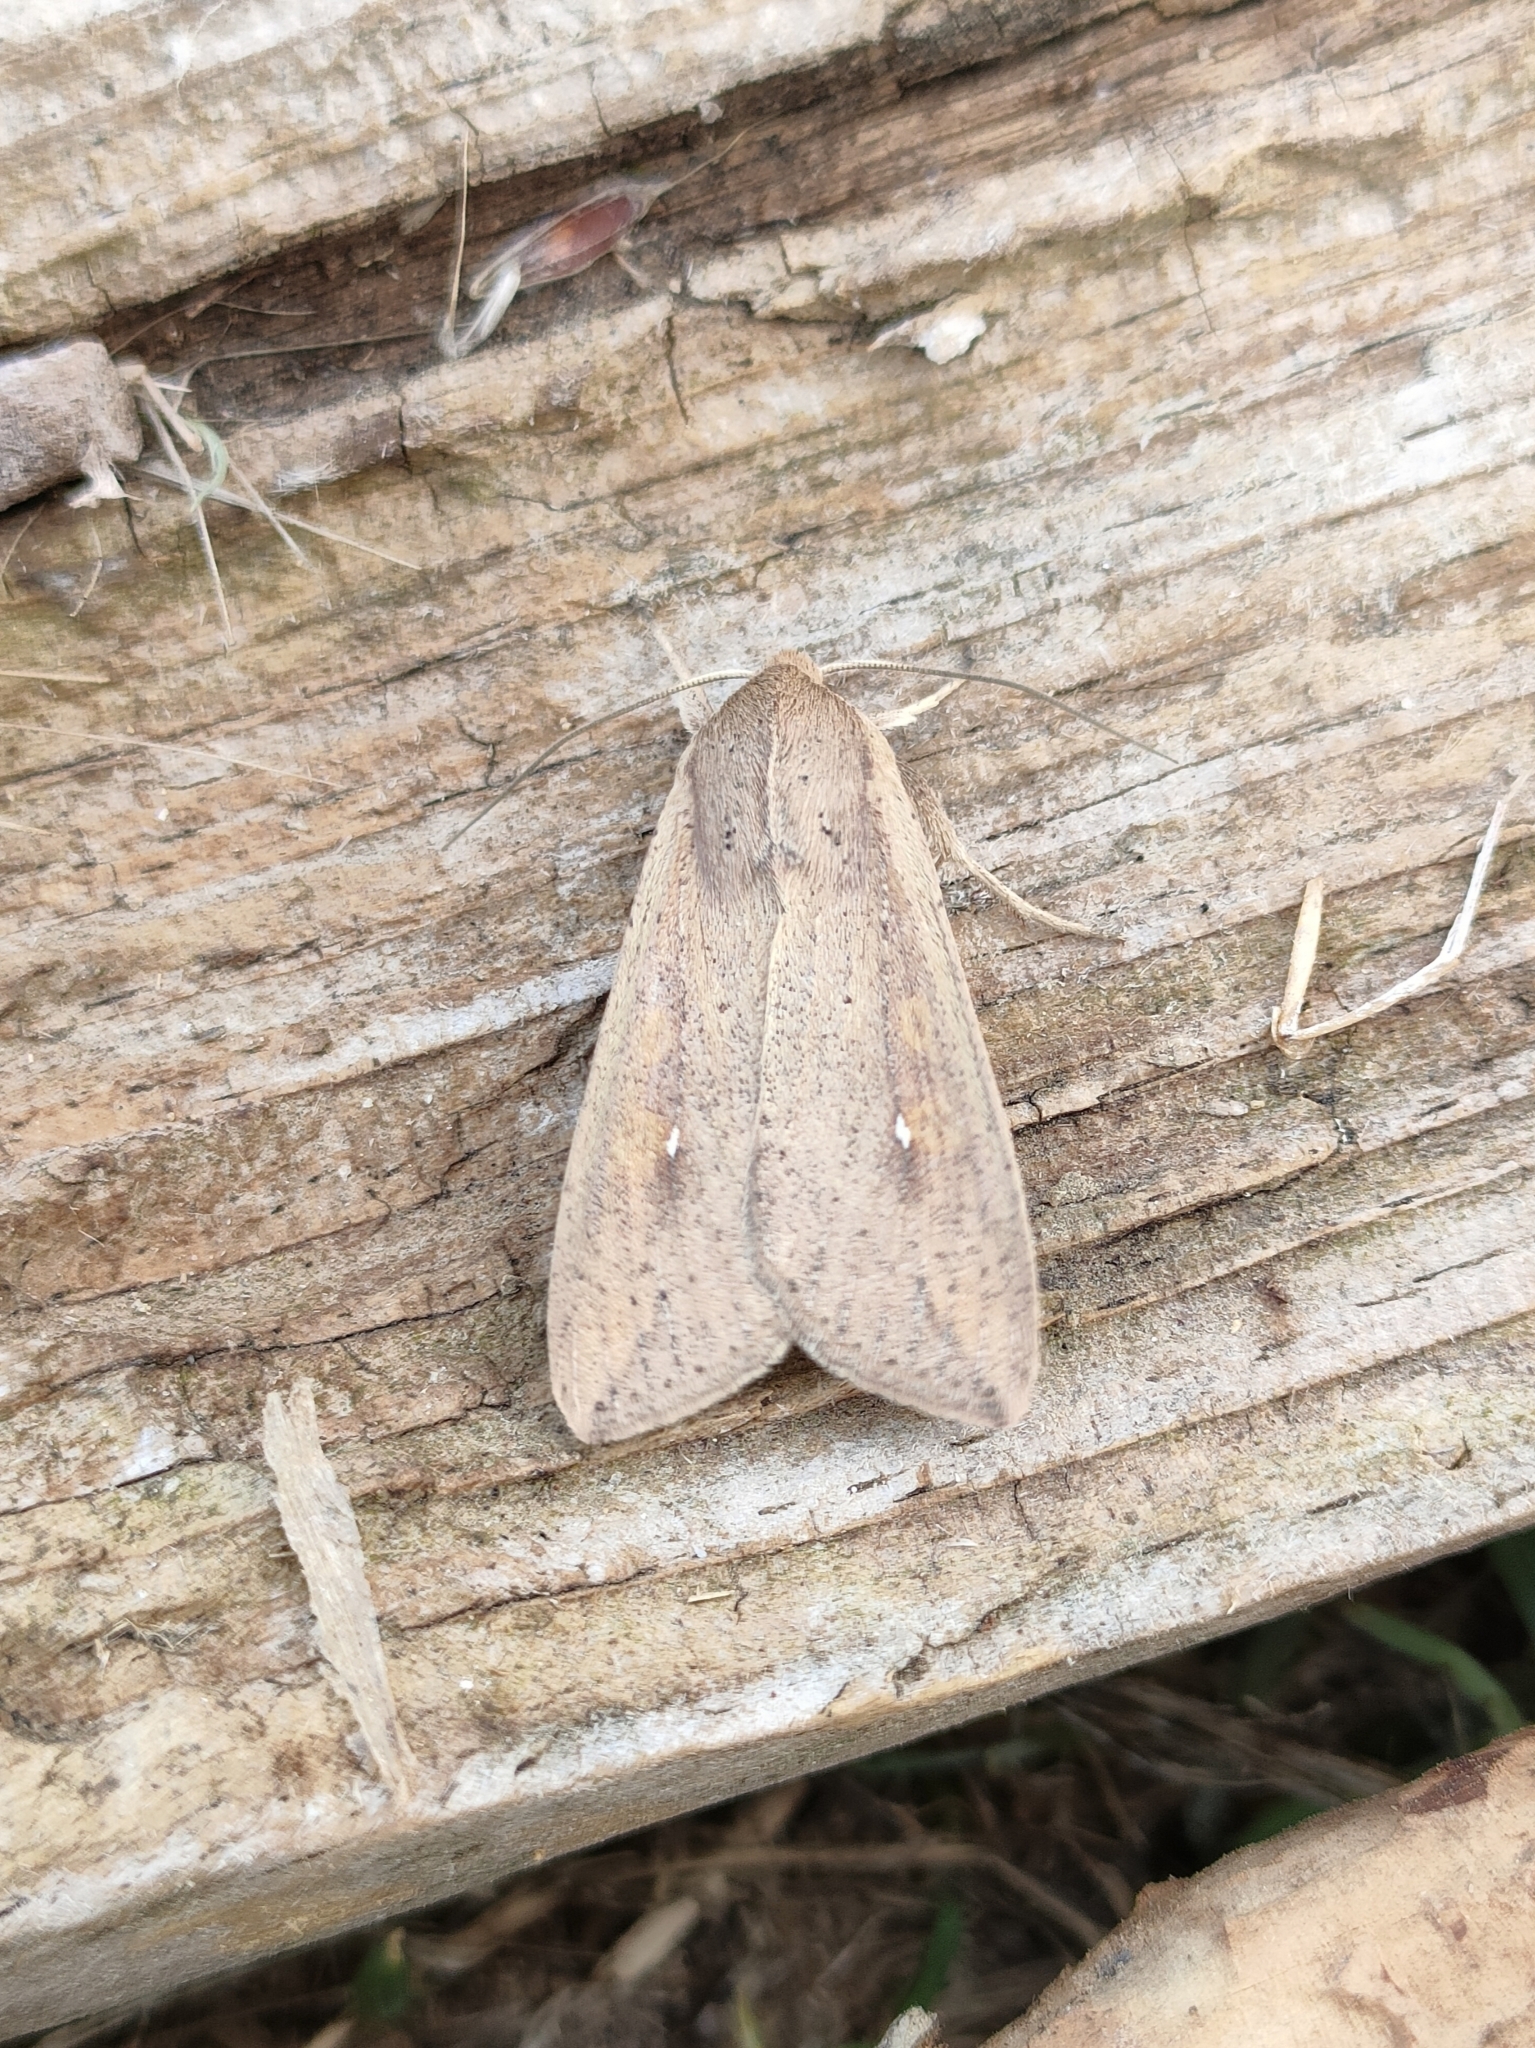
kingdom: Animalia
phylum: Arthropoda
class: Insecta
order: Lepidoptera
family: Noctuidae
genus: Mythimna
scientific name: Mythimna unipuncta
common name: White-speck
